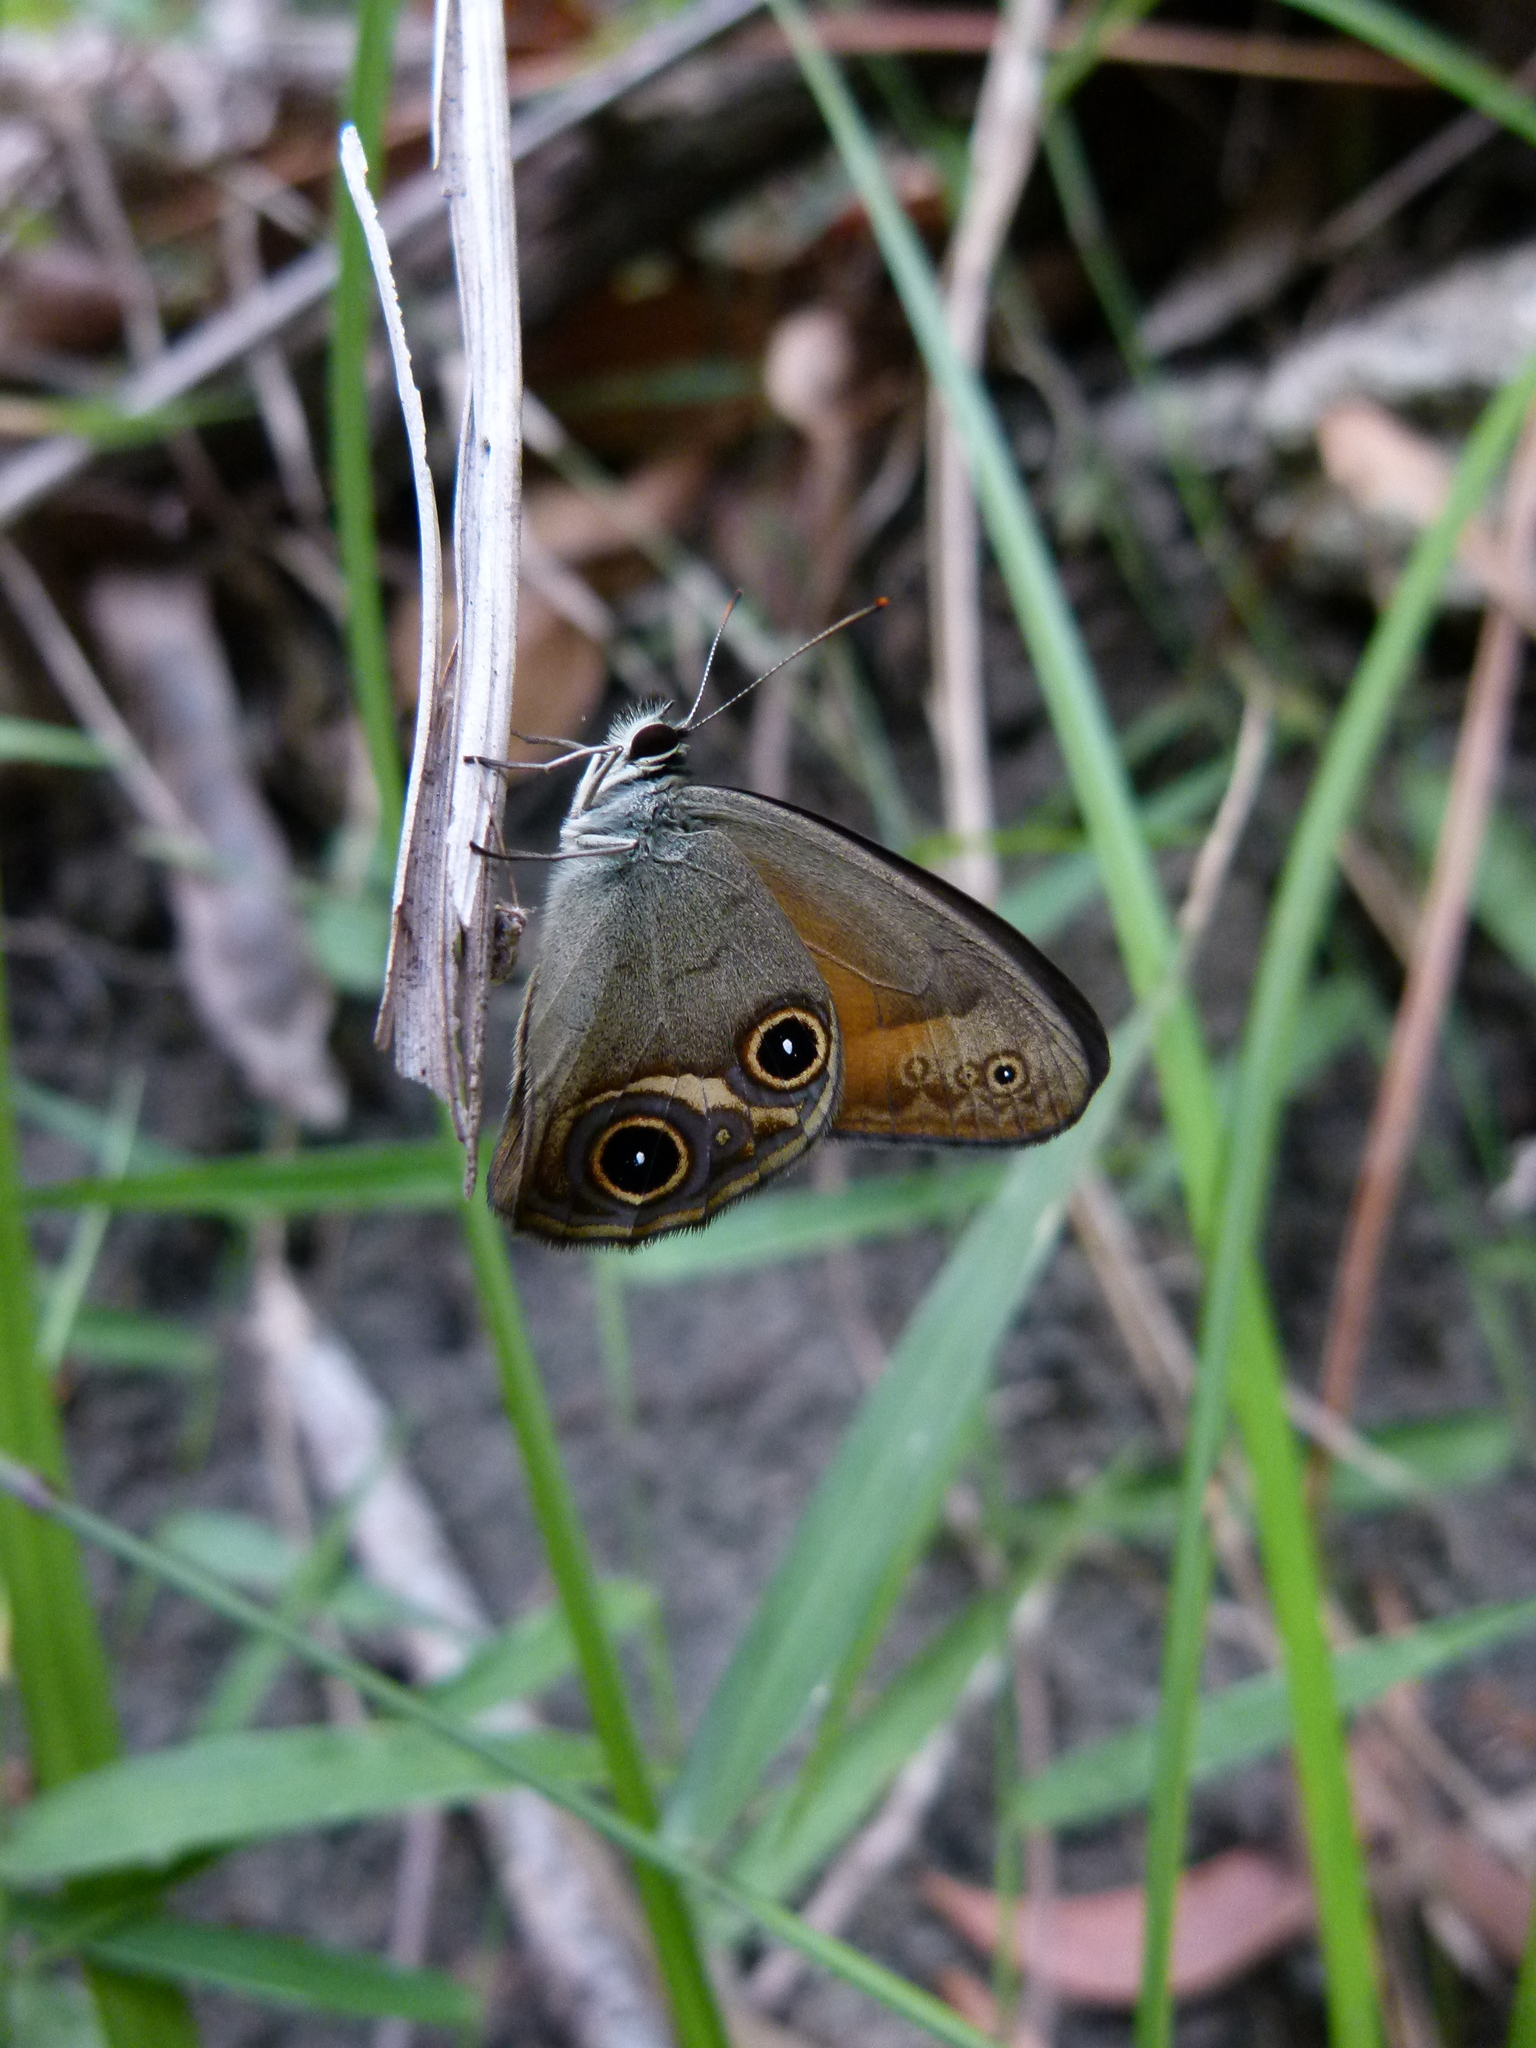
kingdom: Animalia
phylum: Arthropoda
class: Insecta
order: Lepidoptera
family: Nymphalidae
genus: Hypocysta
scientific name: Hypocysta irius
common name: Orange-streaked ringlet
